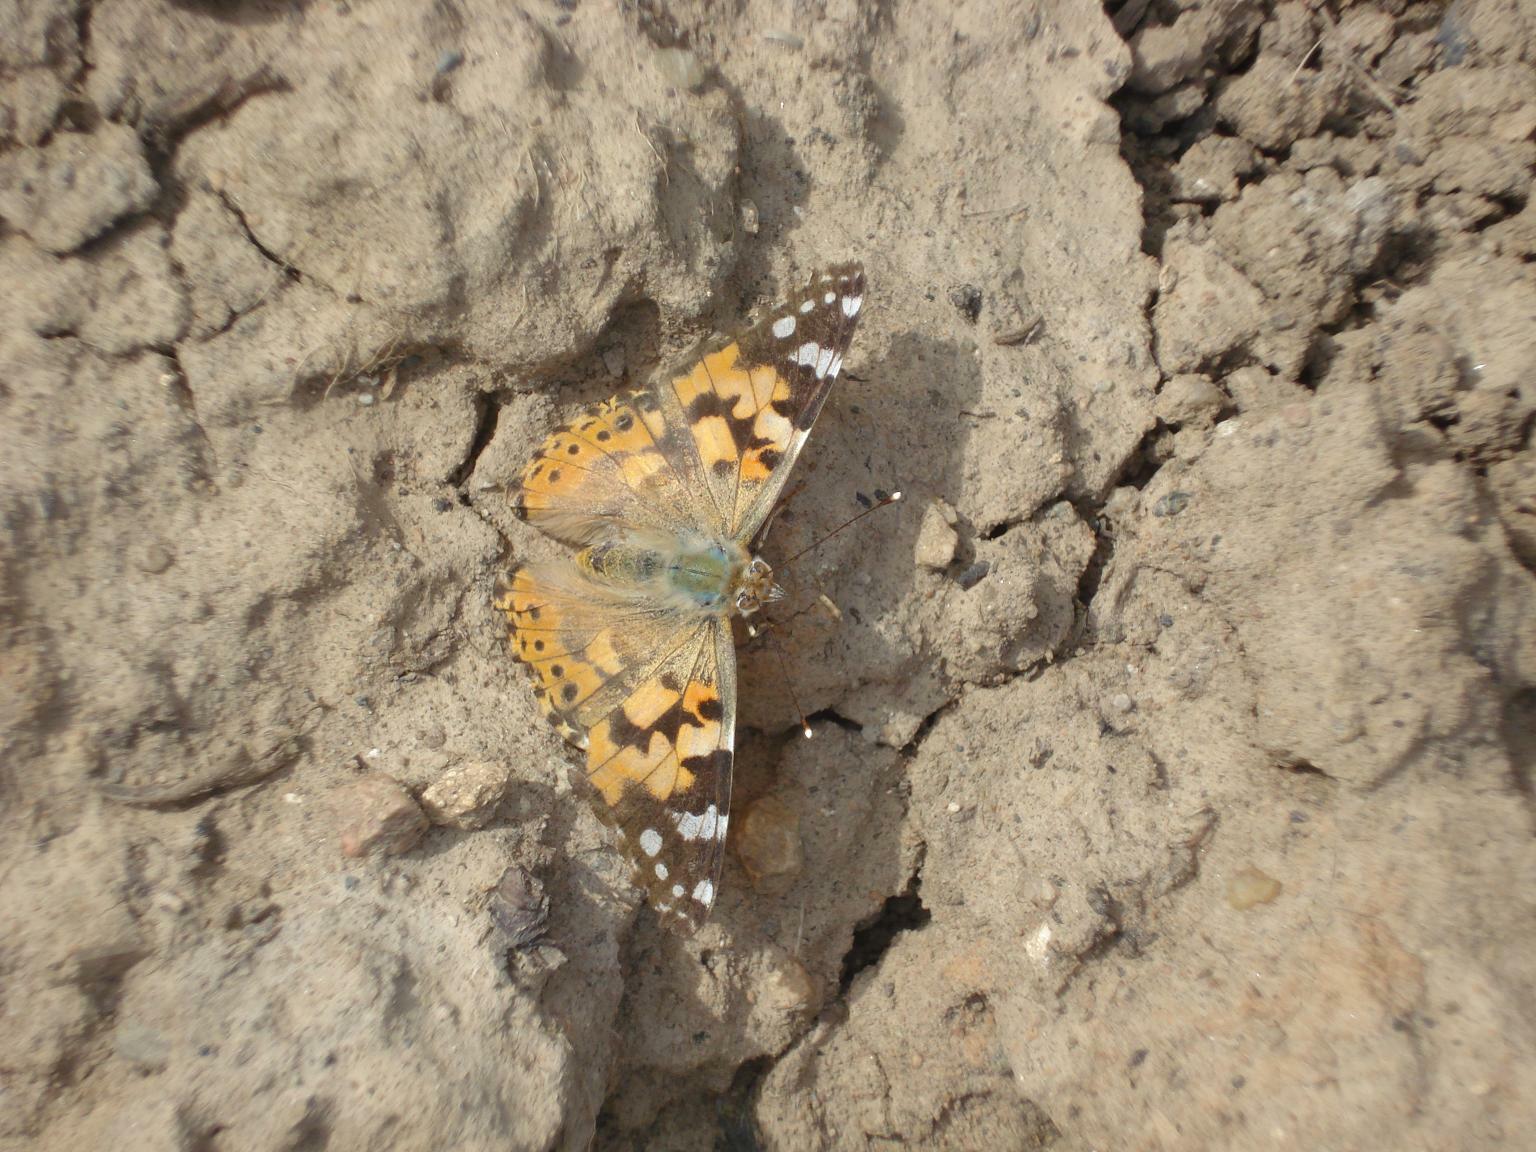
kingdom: Animalia
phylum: Arthropoda
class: Insecta
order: Lepidoptera
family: Nymphalidae
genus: Vanessa
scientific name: Vanessa cardui
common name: Painted lady
